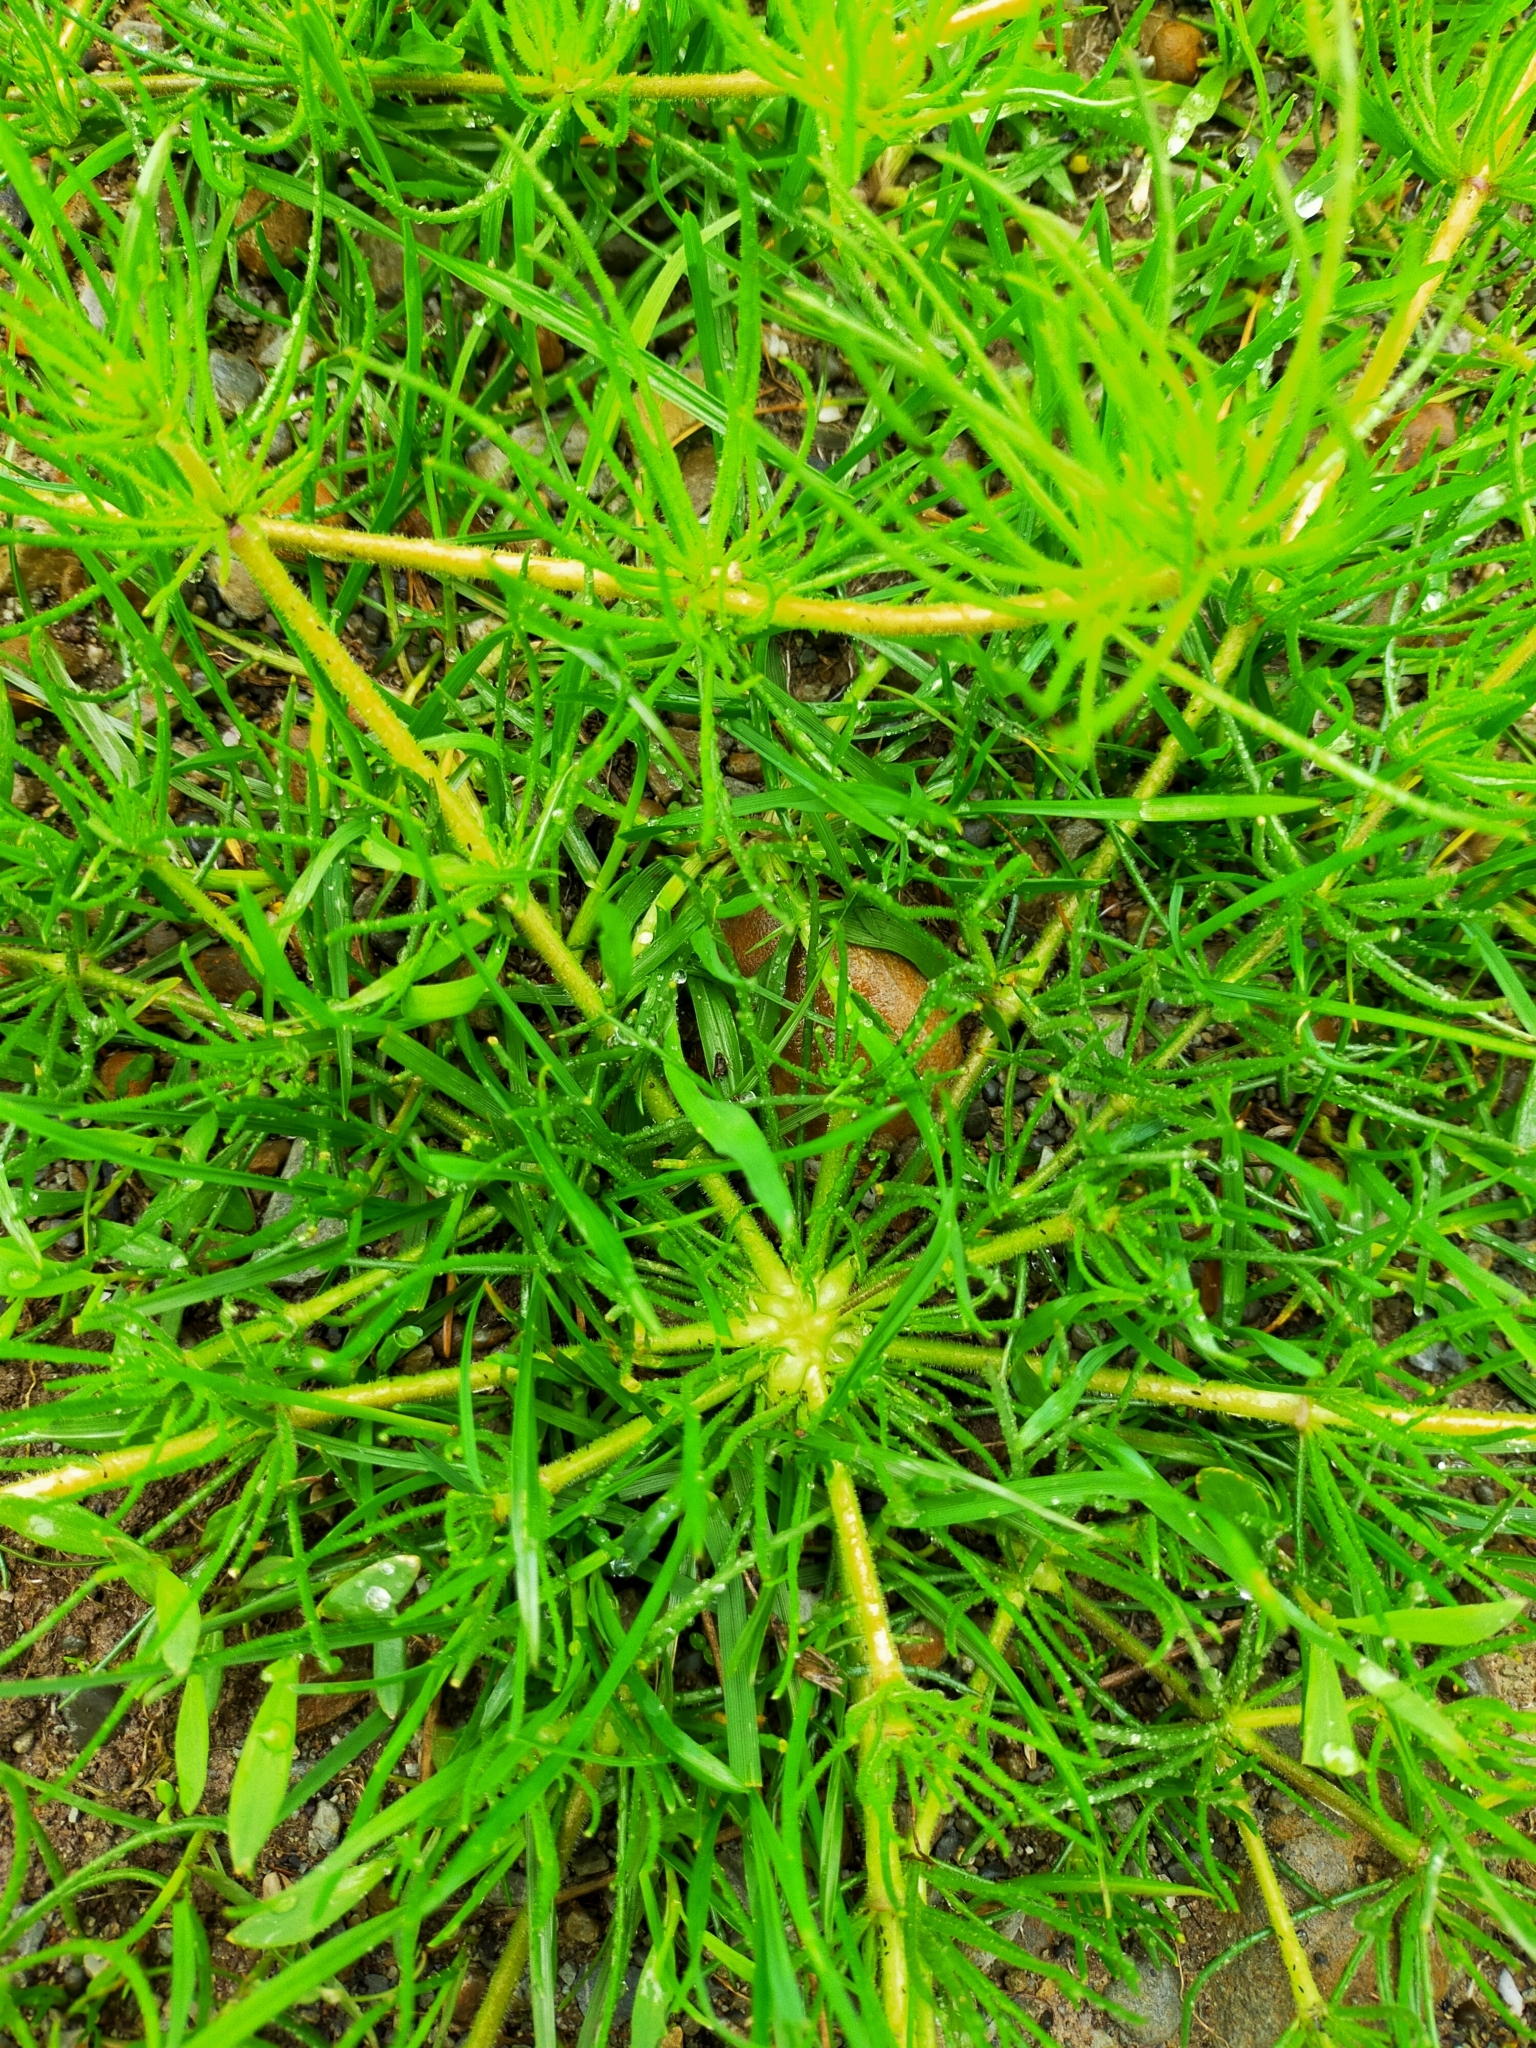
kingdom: Plantae
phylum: Tracheophyta
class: Magnoliopsida
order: Caryophyllales
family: Caryophyllaceae
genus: Spergula
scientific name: Spergula arvensis
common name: Corn spurrey
